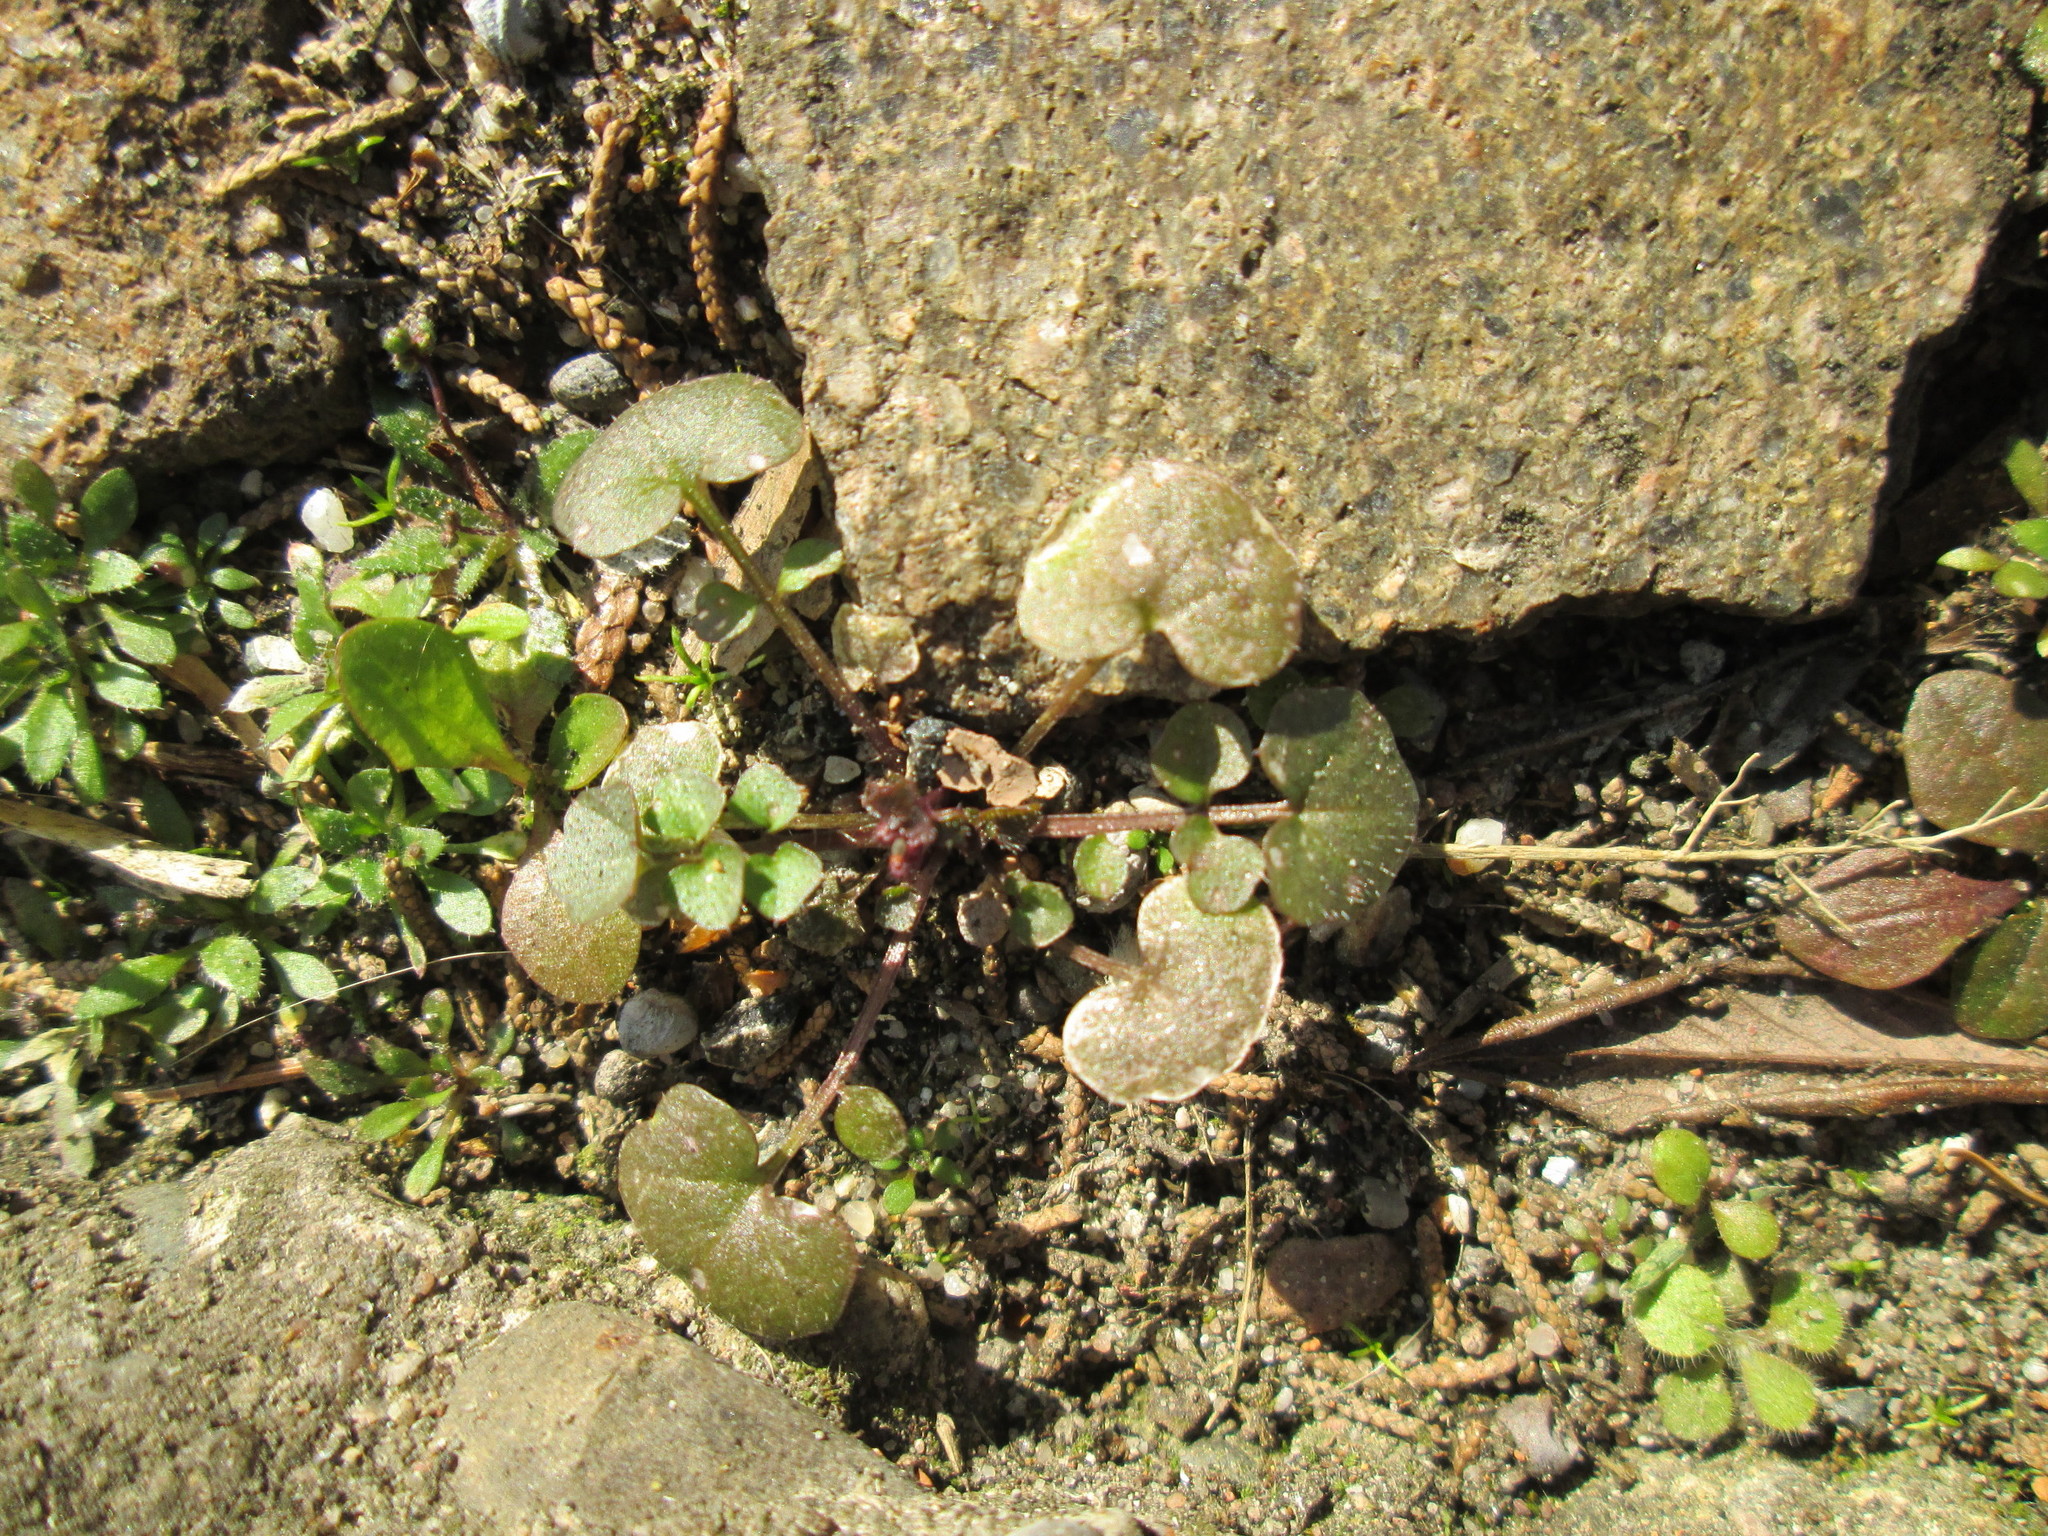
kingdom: Plantae
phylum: Tracheophyta
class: Magnoliopsida
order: Brassicales
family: Brassicaceae
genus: Cardamine
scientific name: Cardamine hirsuta
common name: Hairy bittercress
